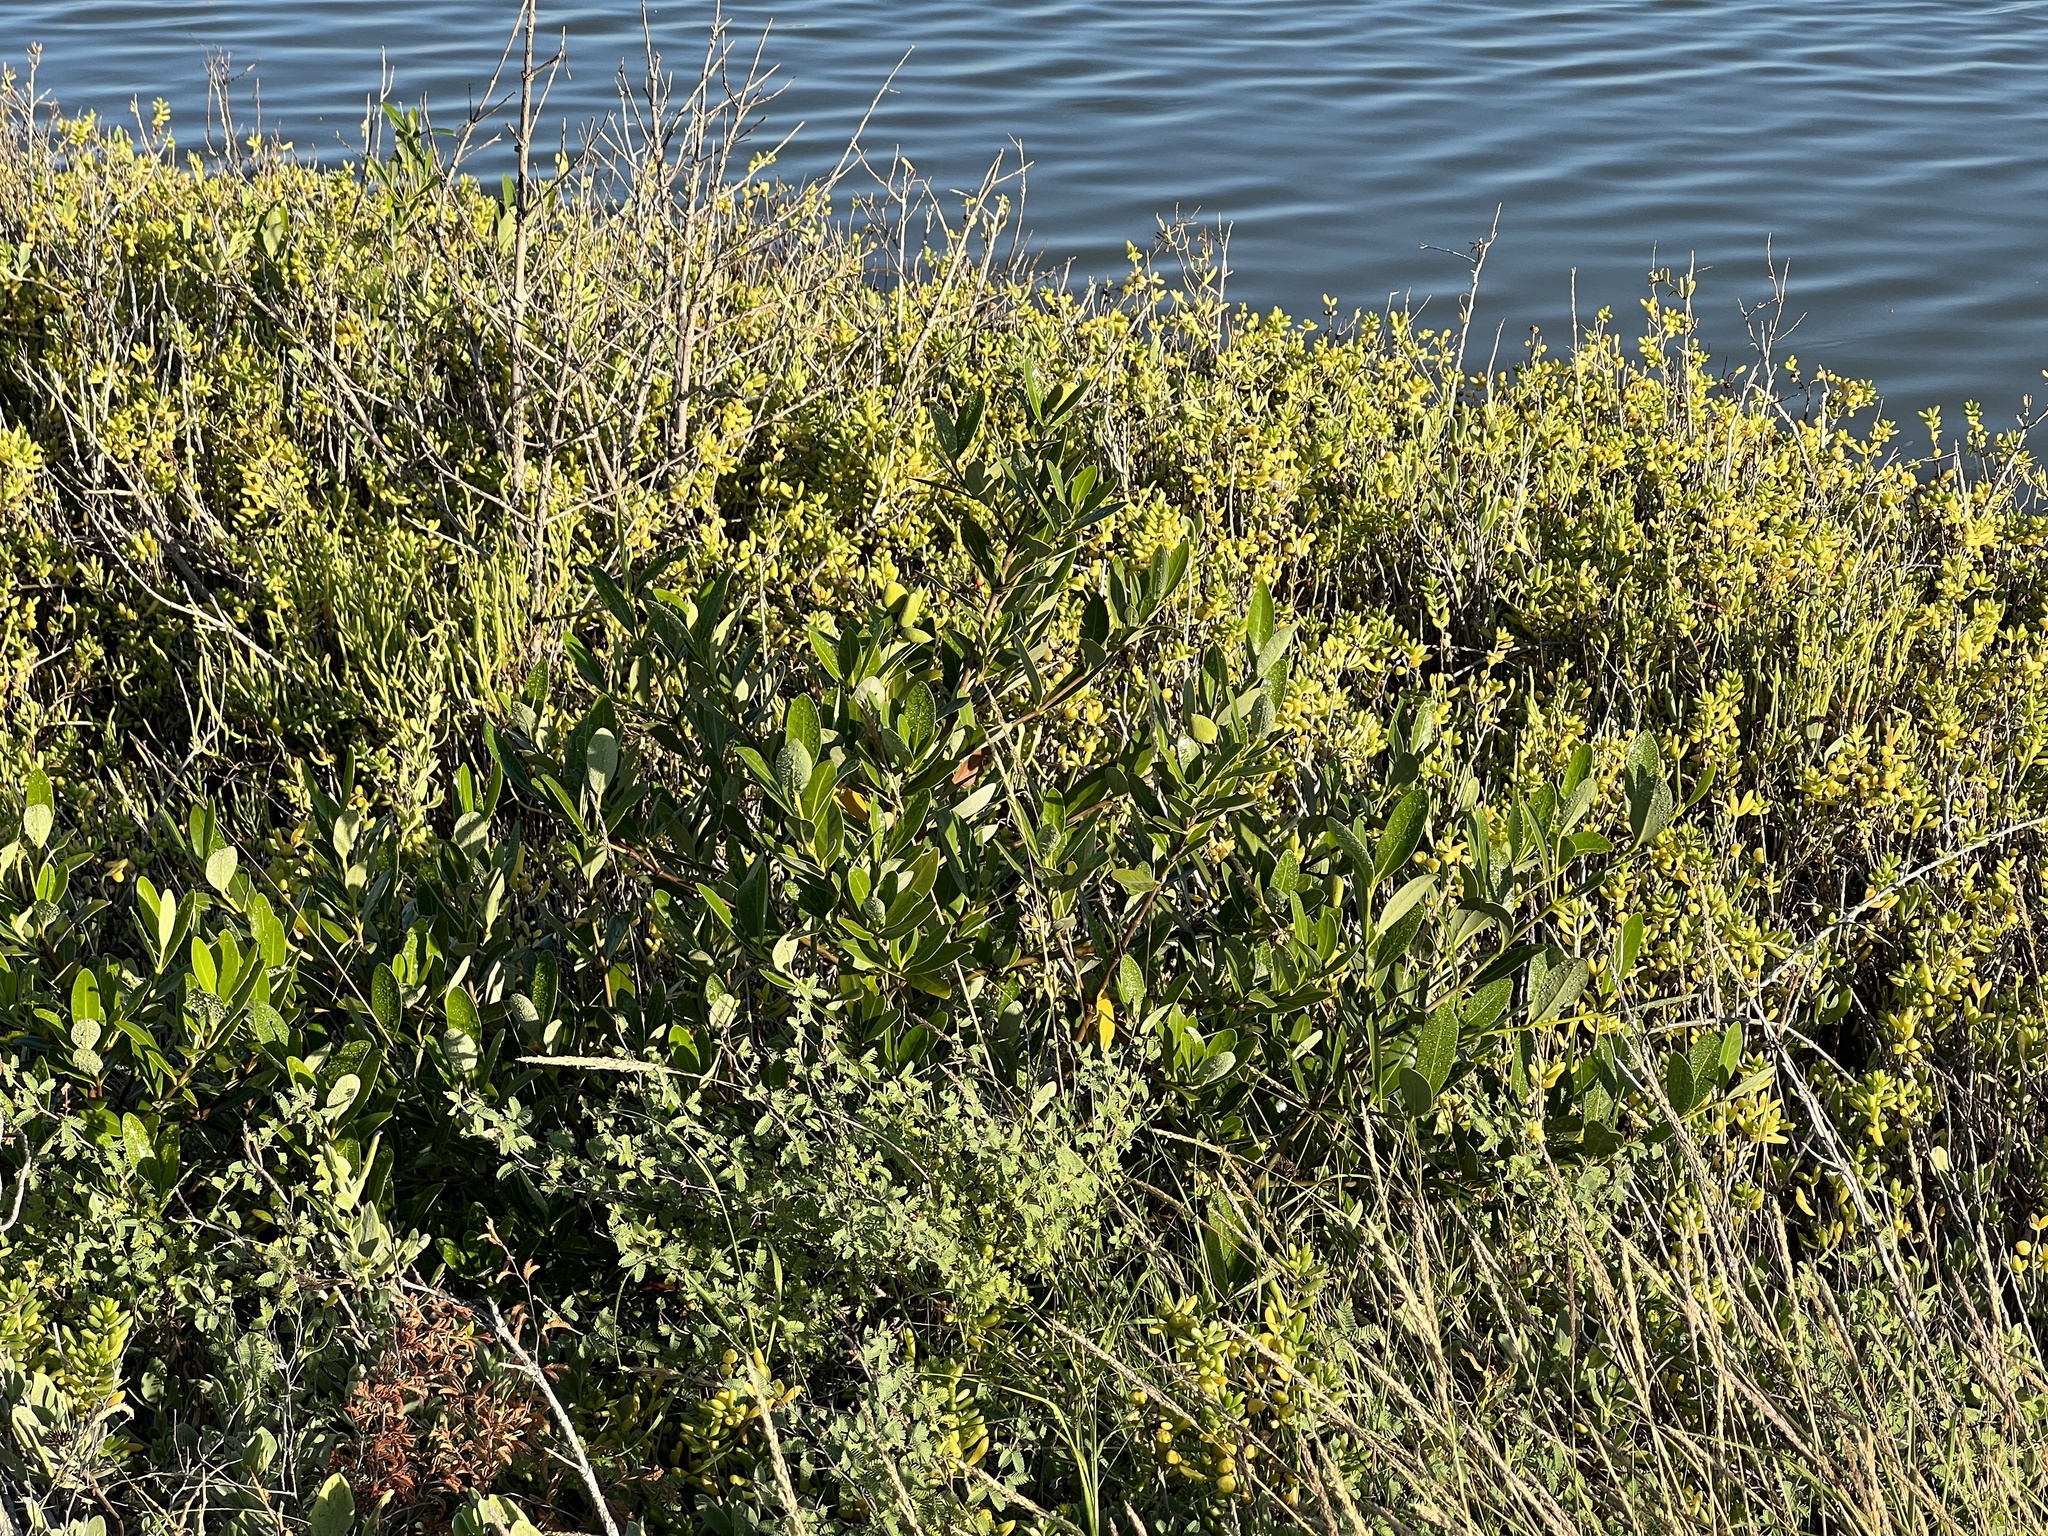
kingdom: Plantae
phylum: Tracheophyta
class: Magnoliopsida
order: Lamiales
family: Acanthaceae
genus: Avicennia
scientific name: Avicennia germinans
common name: Black mangrove
